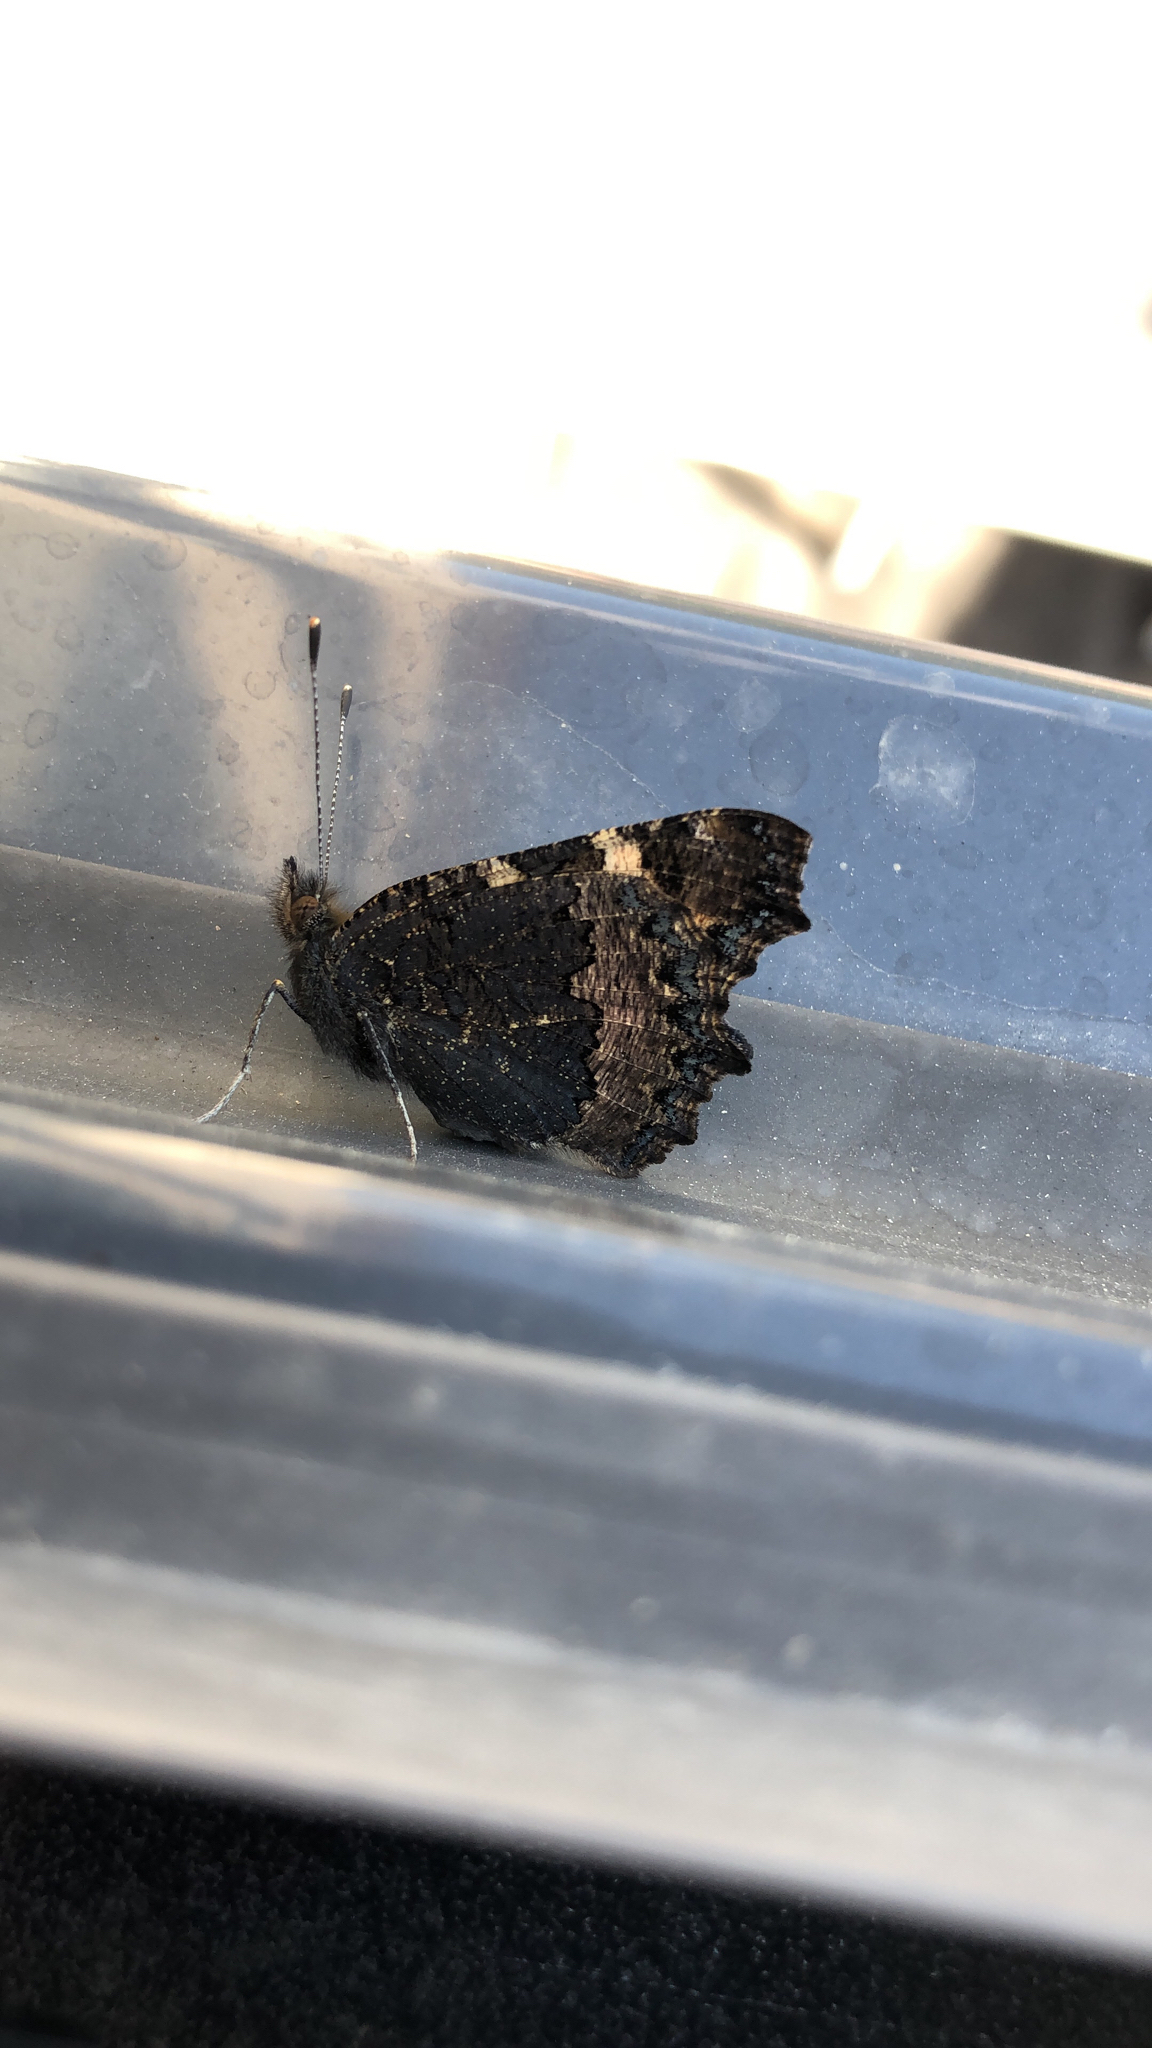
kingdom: Animalia
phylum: Arthropoda
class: Insecta
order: Lepidoptera
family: Nymphalidae
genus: Aglais
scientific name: Aglais urticae
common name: Small tortoiseshell
